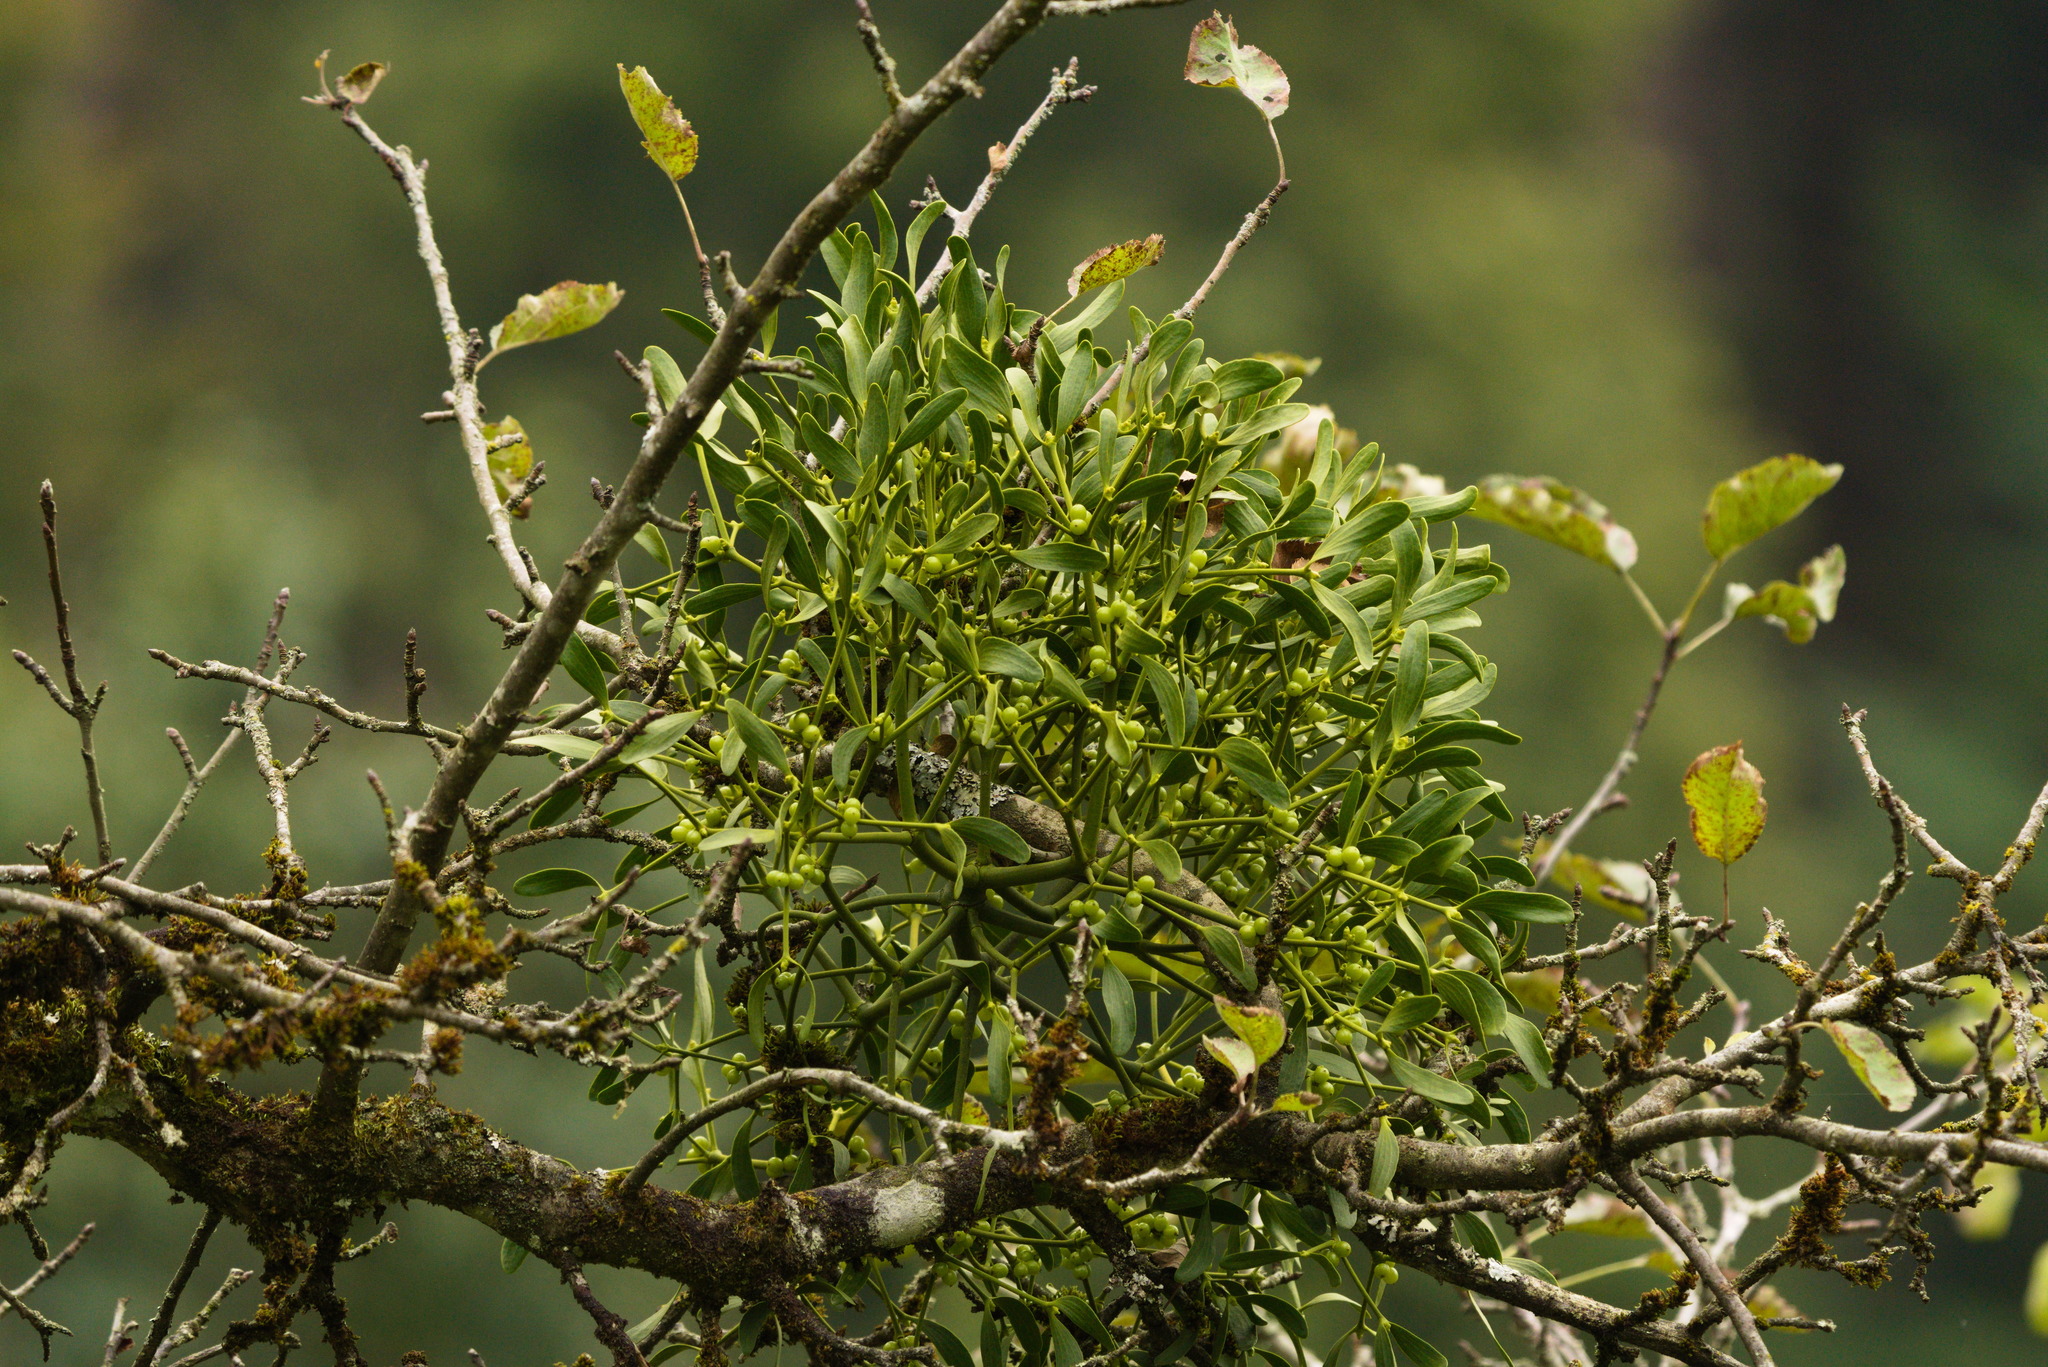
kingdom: Plantae
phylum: Tracheophyta
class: Magnoliopsida
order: Santalales
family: Viscaceae
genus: Viscum
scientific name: Viscum album
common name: Mistletoe
